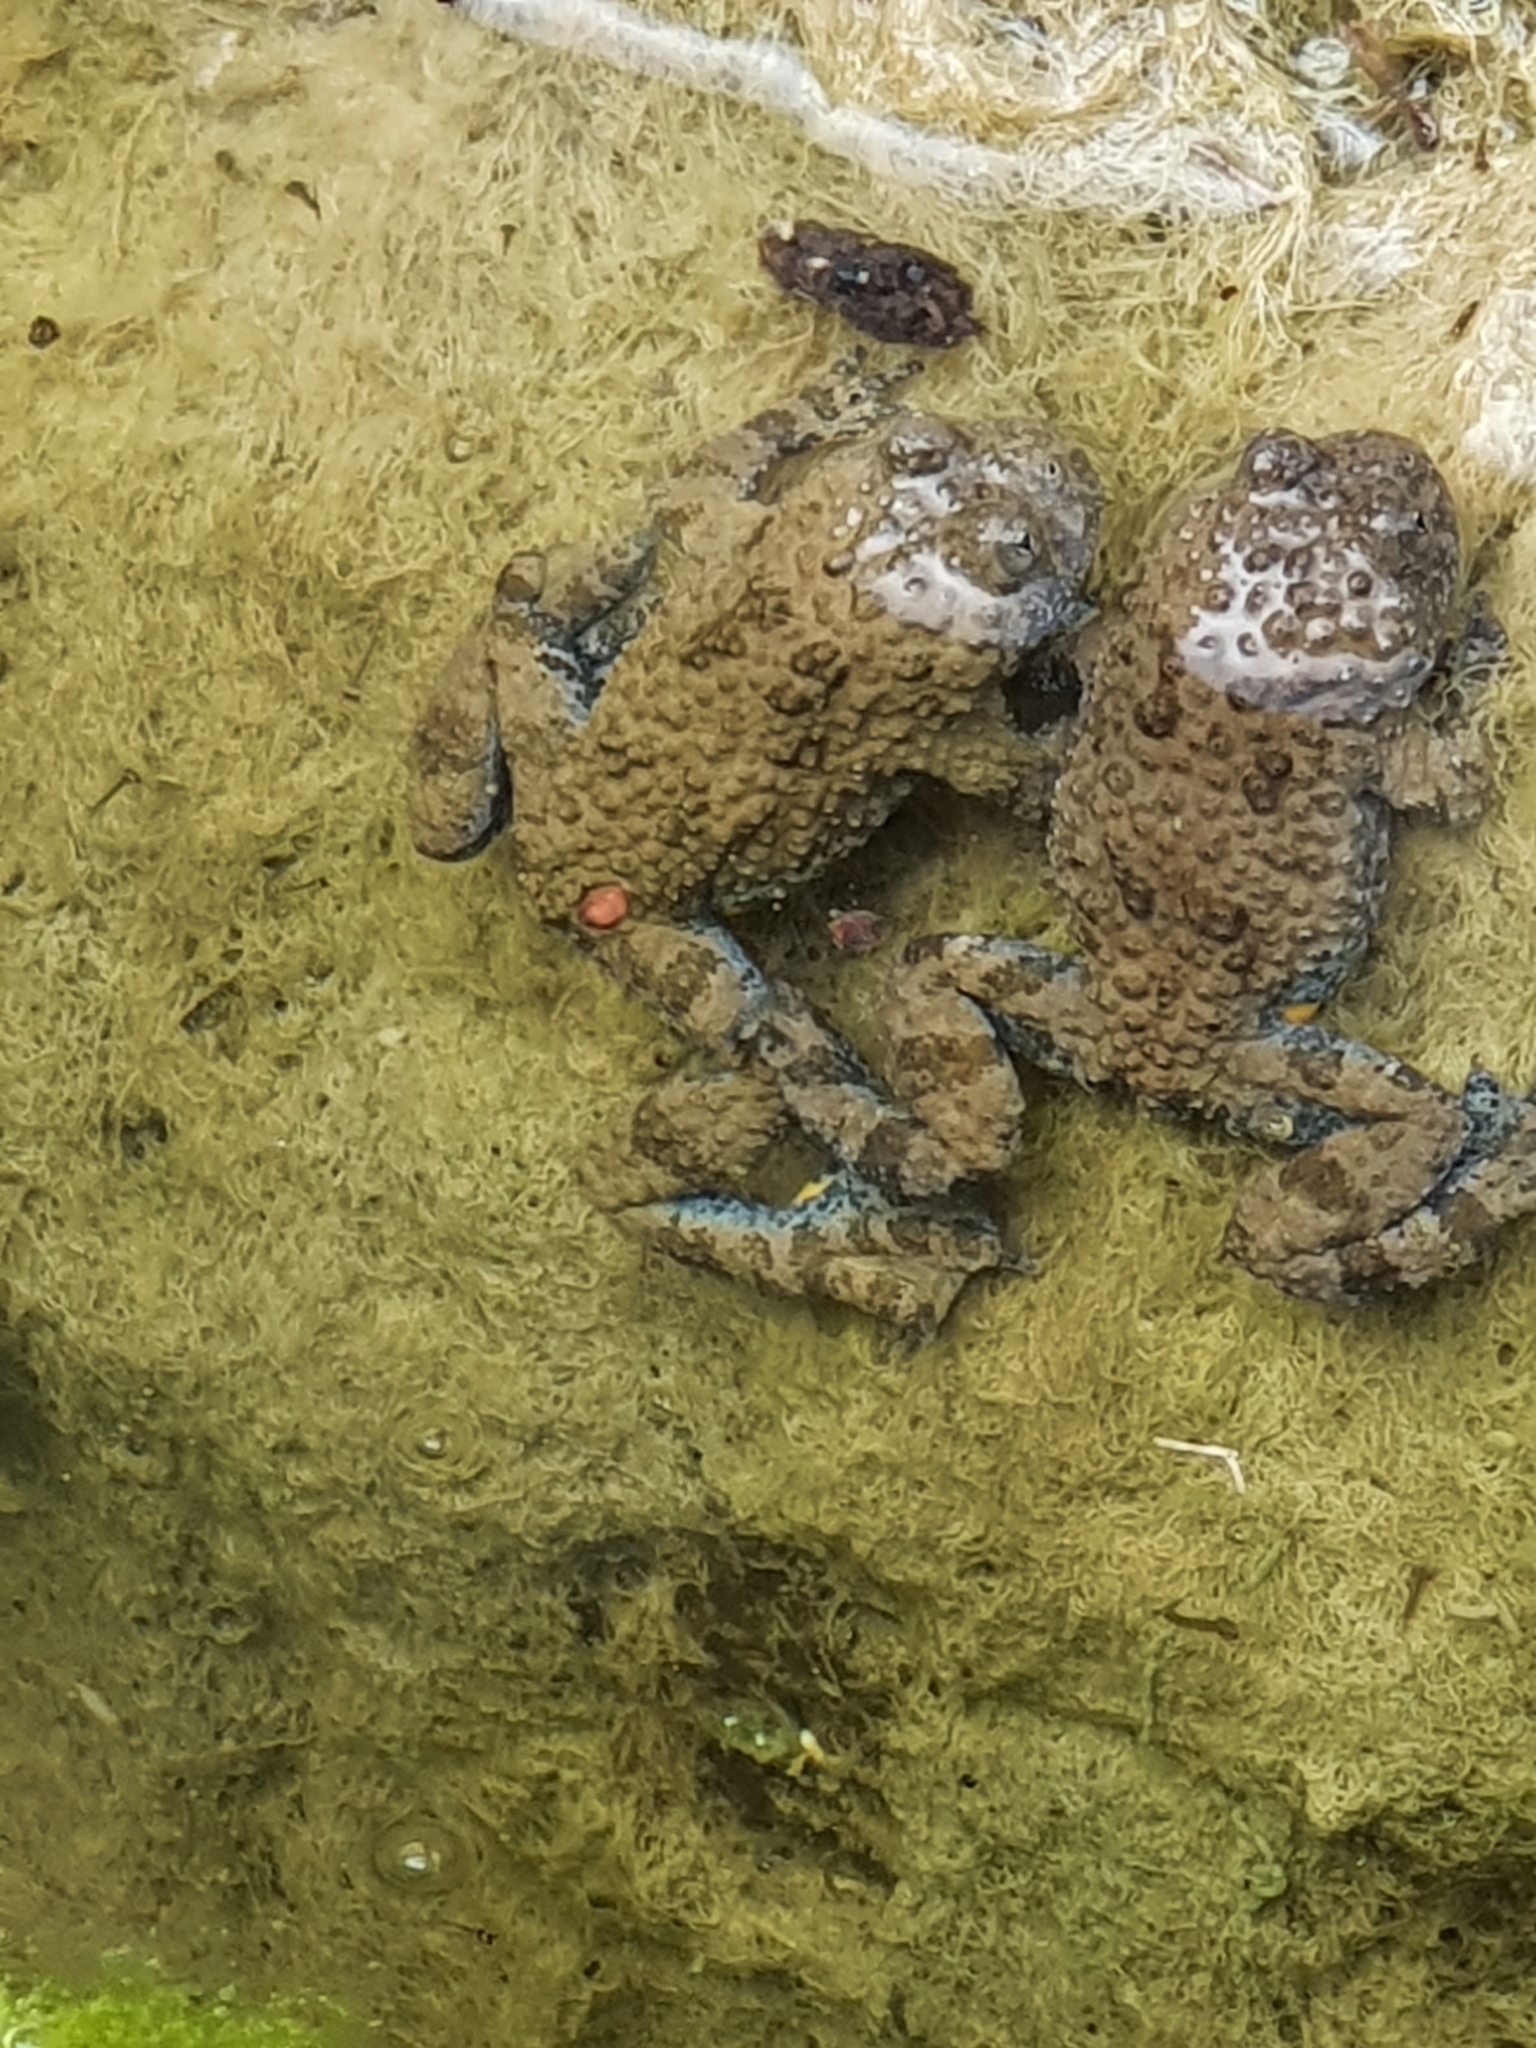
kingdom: Animalia
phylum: Chordata
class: Amphibia
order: Anura
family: Bombinatoridae
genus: Bombina
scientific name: Bombina variegata
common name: Yellow-bellied toad
